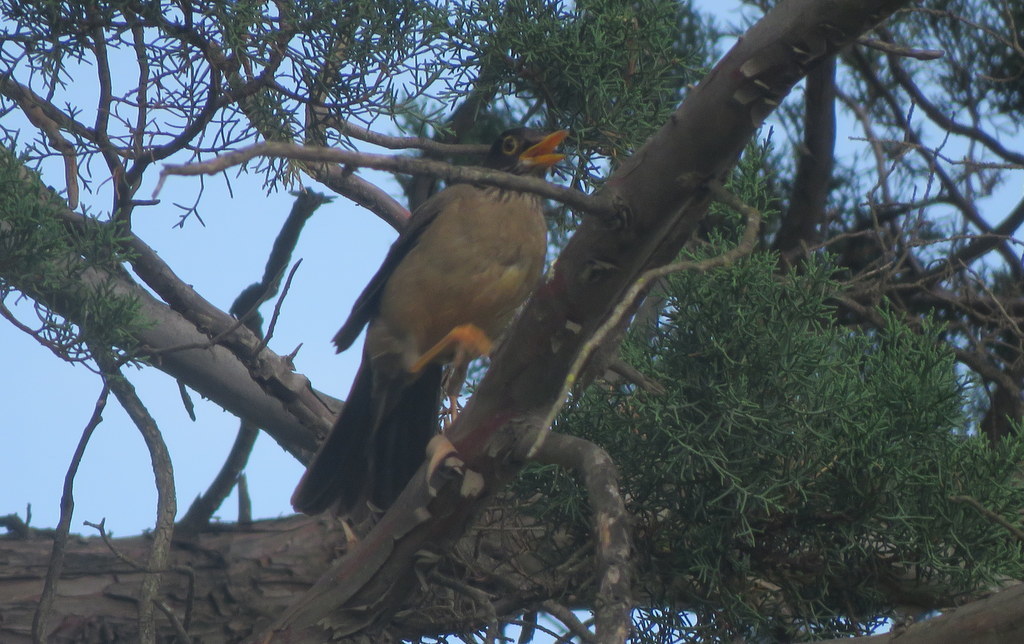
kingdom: Animalia
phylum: Chordata
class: Aves
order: Passeriformes
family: Turdidae
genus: Turdus
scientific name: Turdus falcklandii
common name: Austral thrush
